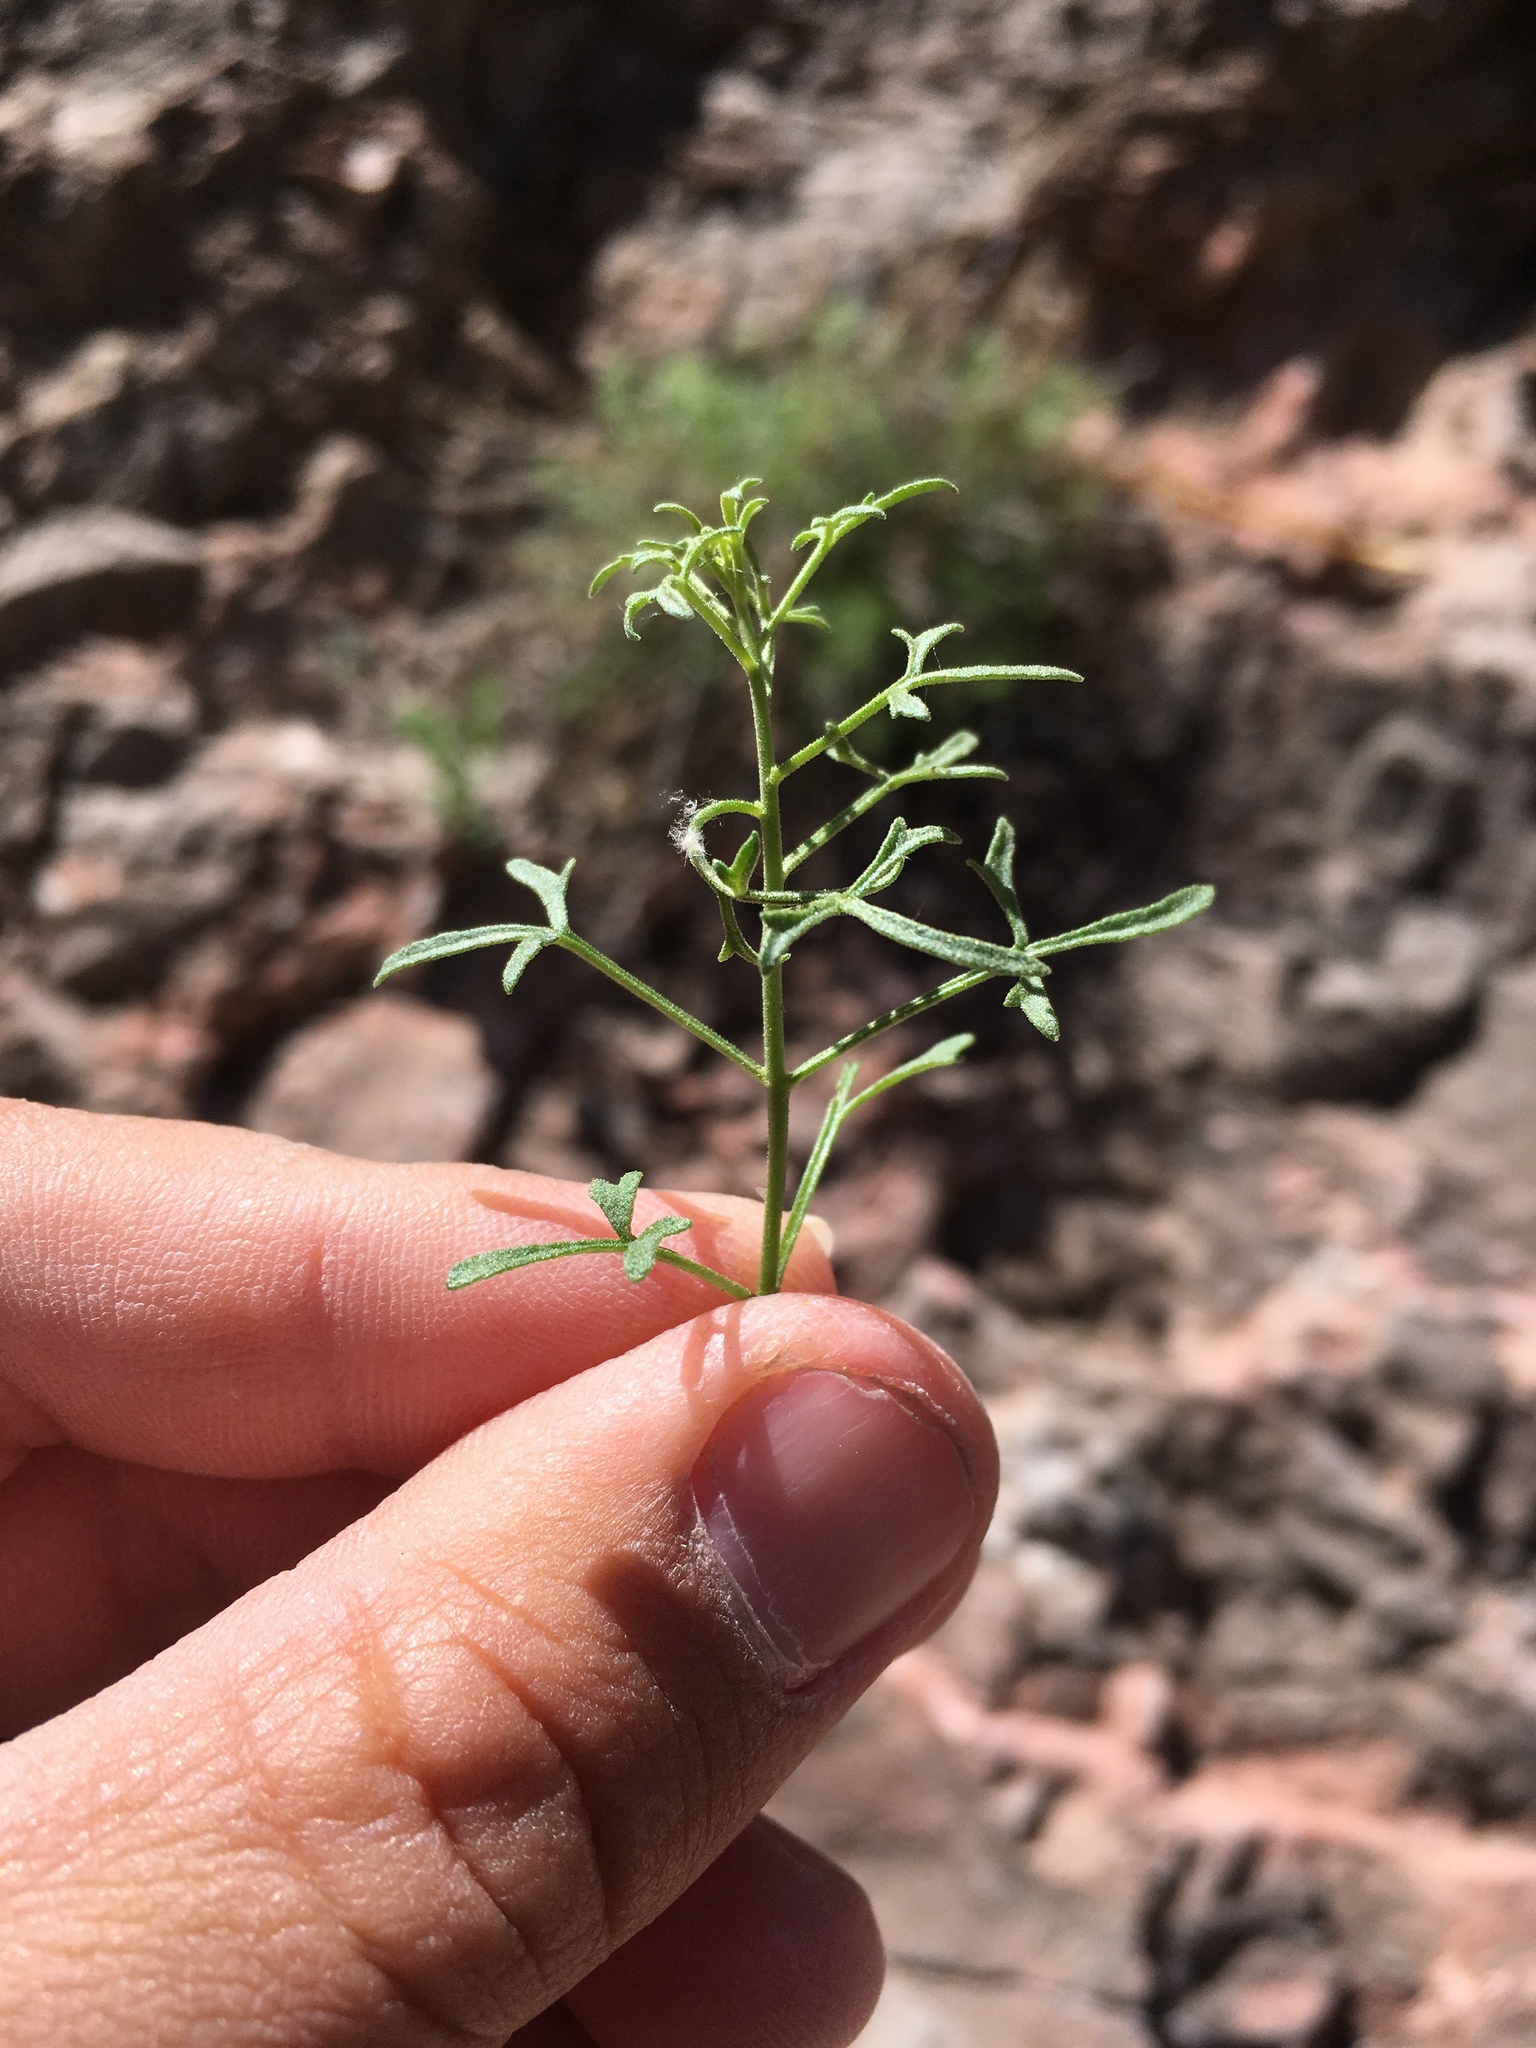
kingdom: Plantae
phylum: Tracheophyta
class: Magnoliopsida
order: Asterales
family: Asteraceae
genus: Laphamia
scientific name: Laphamia staurophylla
